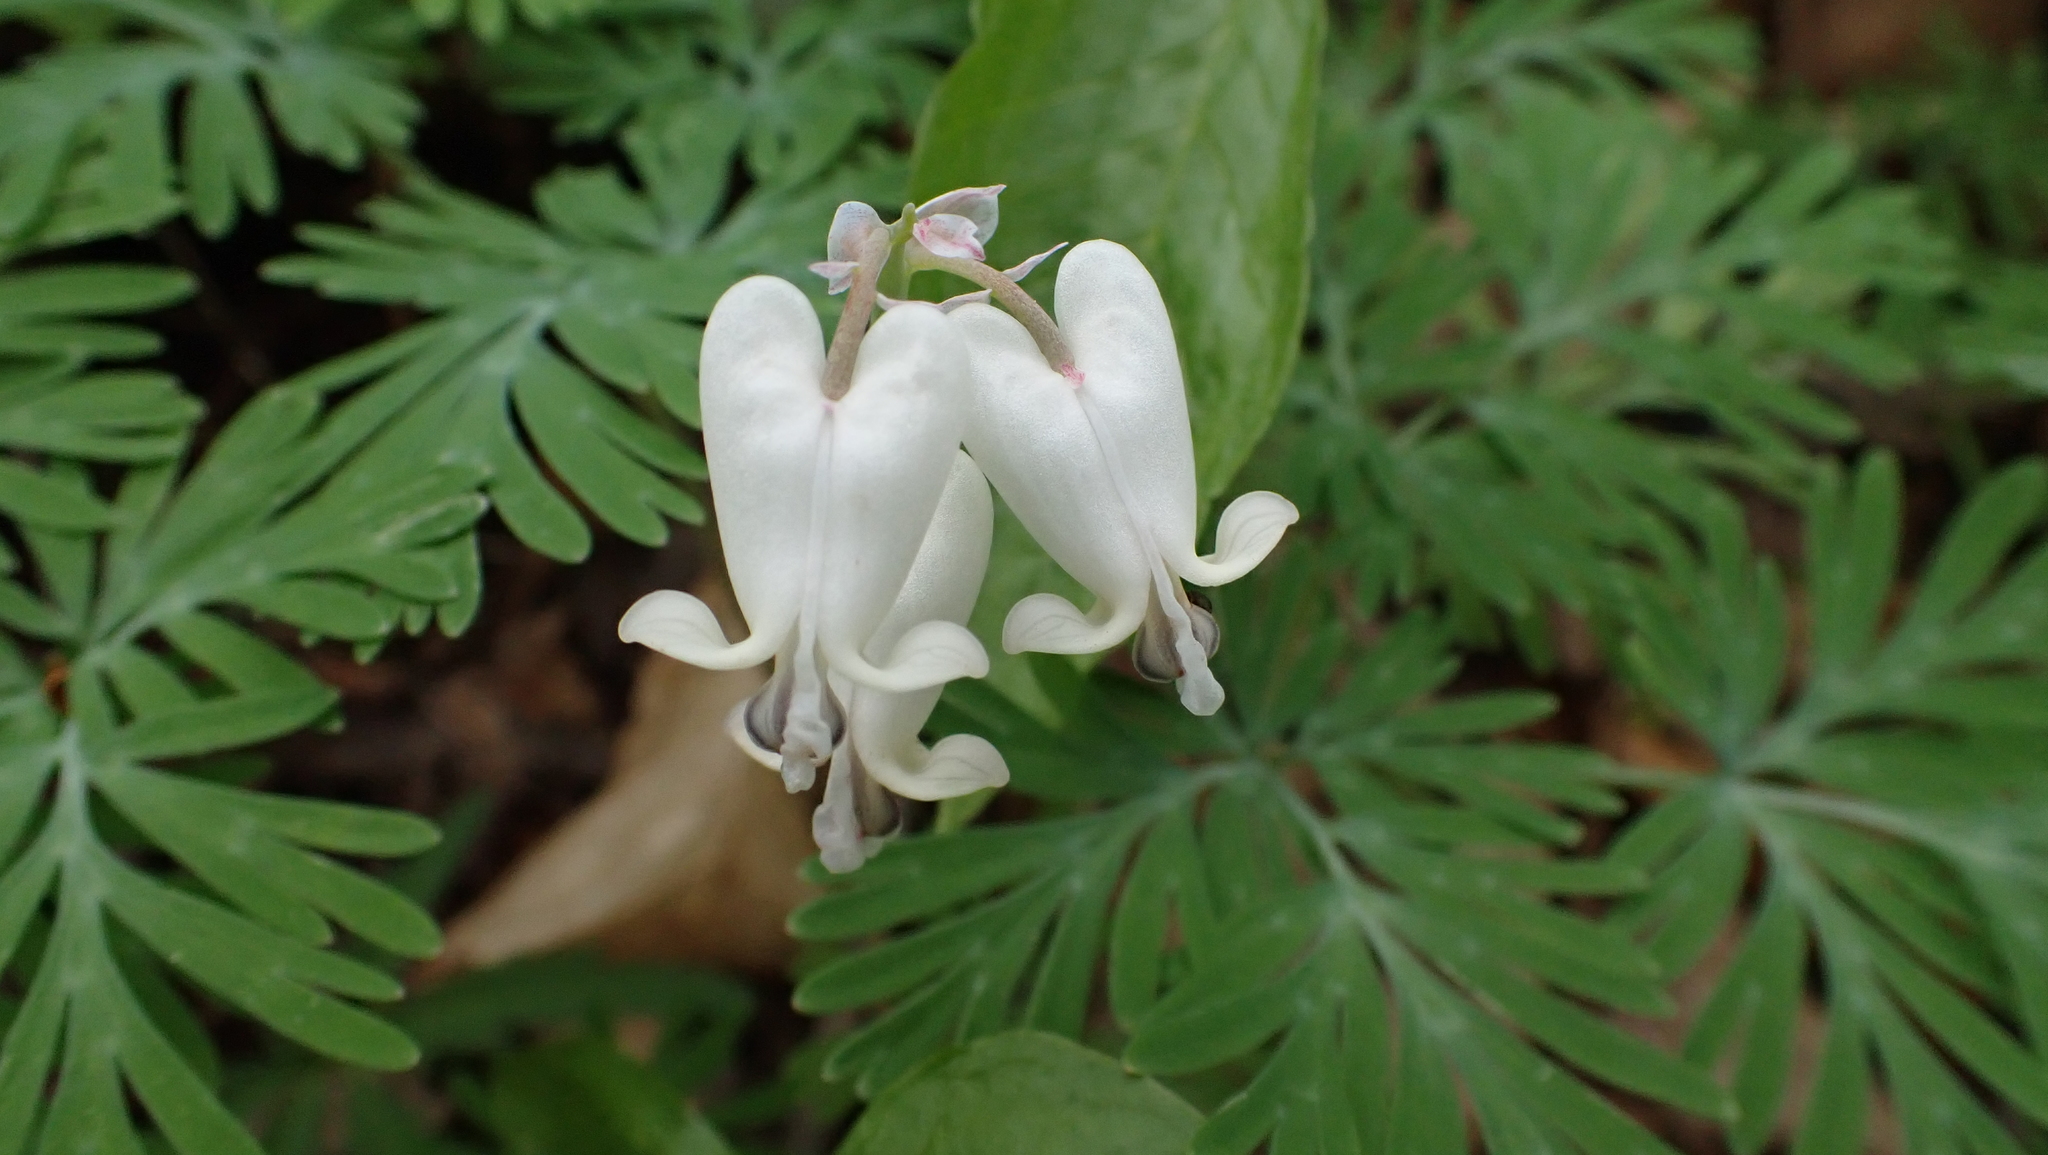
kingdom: Plantae
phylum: Tracheophyta
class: Magnoliopsida
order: Ranunculales
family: Papaveraceae
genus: Dicentra
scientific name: Dicentra canadensis
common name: Squirrel-corn
